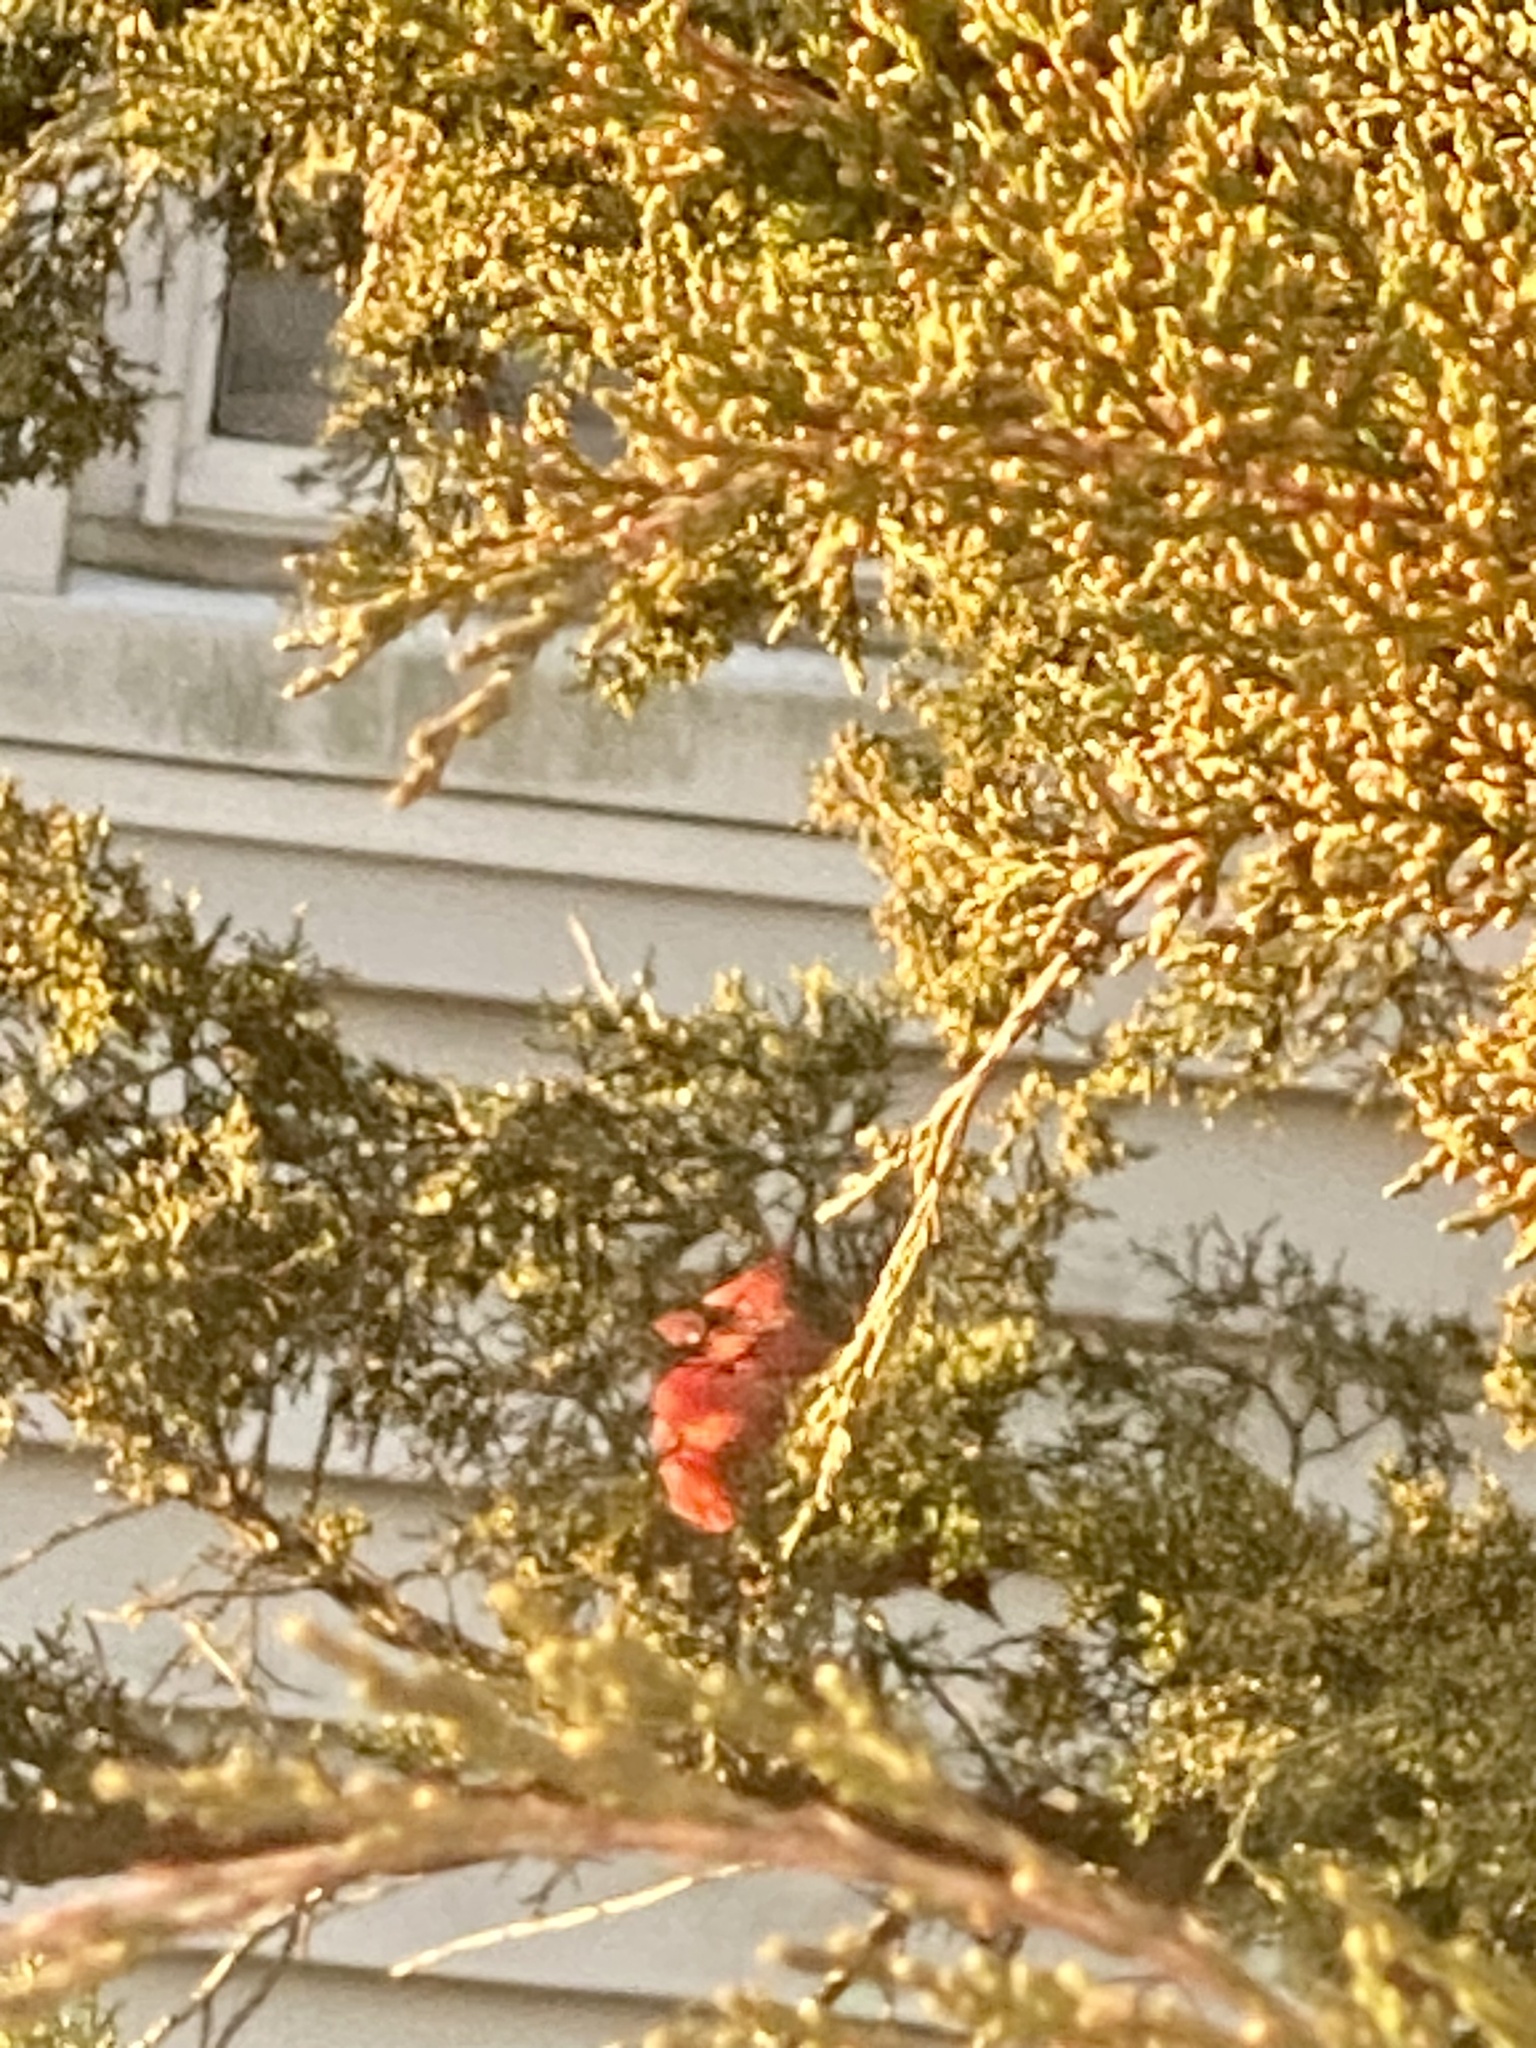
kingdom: Animalia
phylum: Chordata
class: Aves
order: Passeriformes
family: Cardinalidae
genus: Cardinalis
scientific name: Cardinalis cardinalis
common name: Northern cardinal
